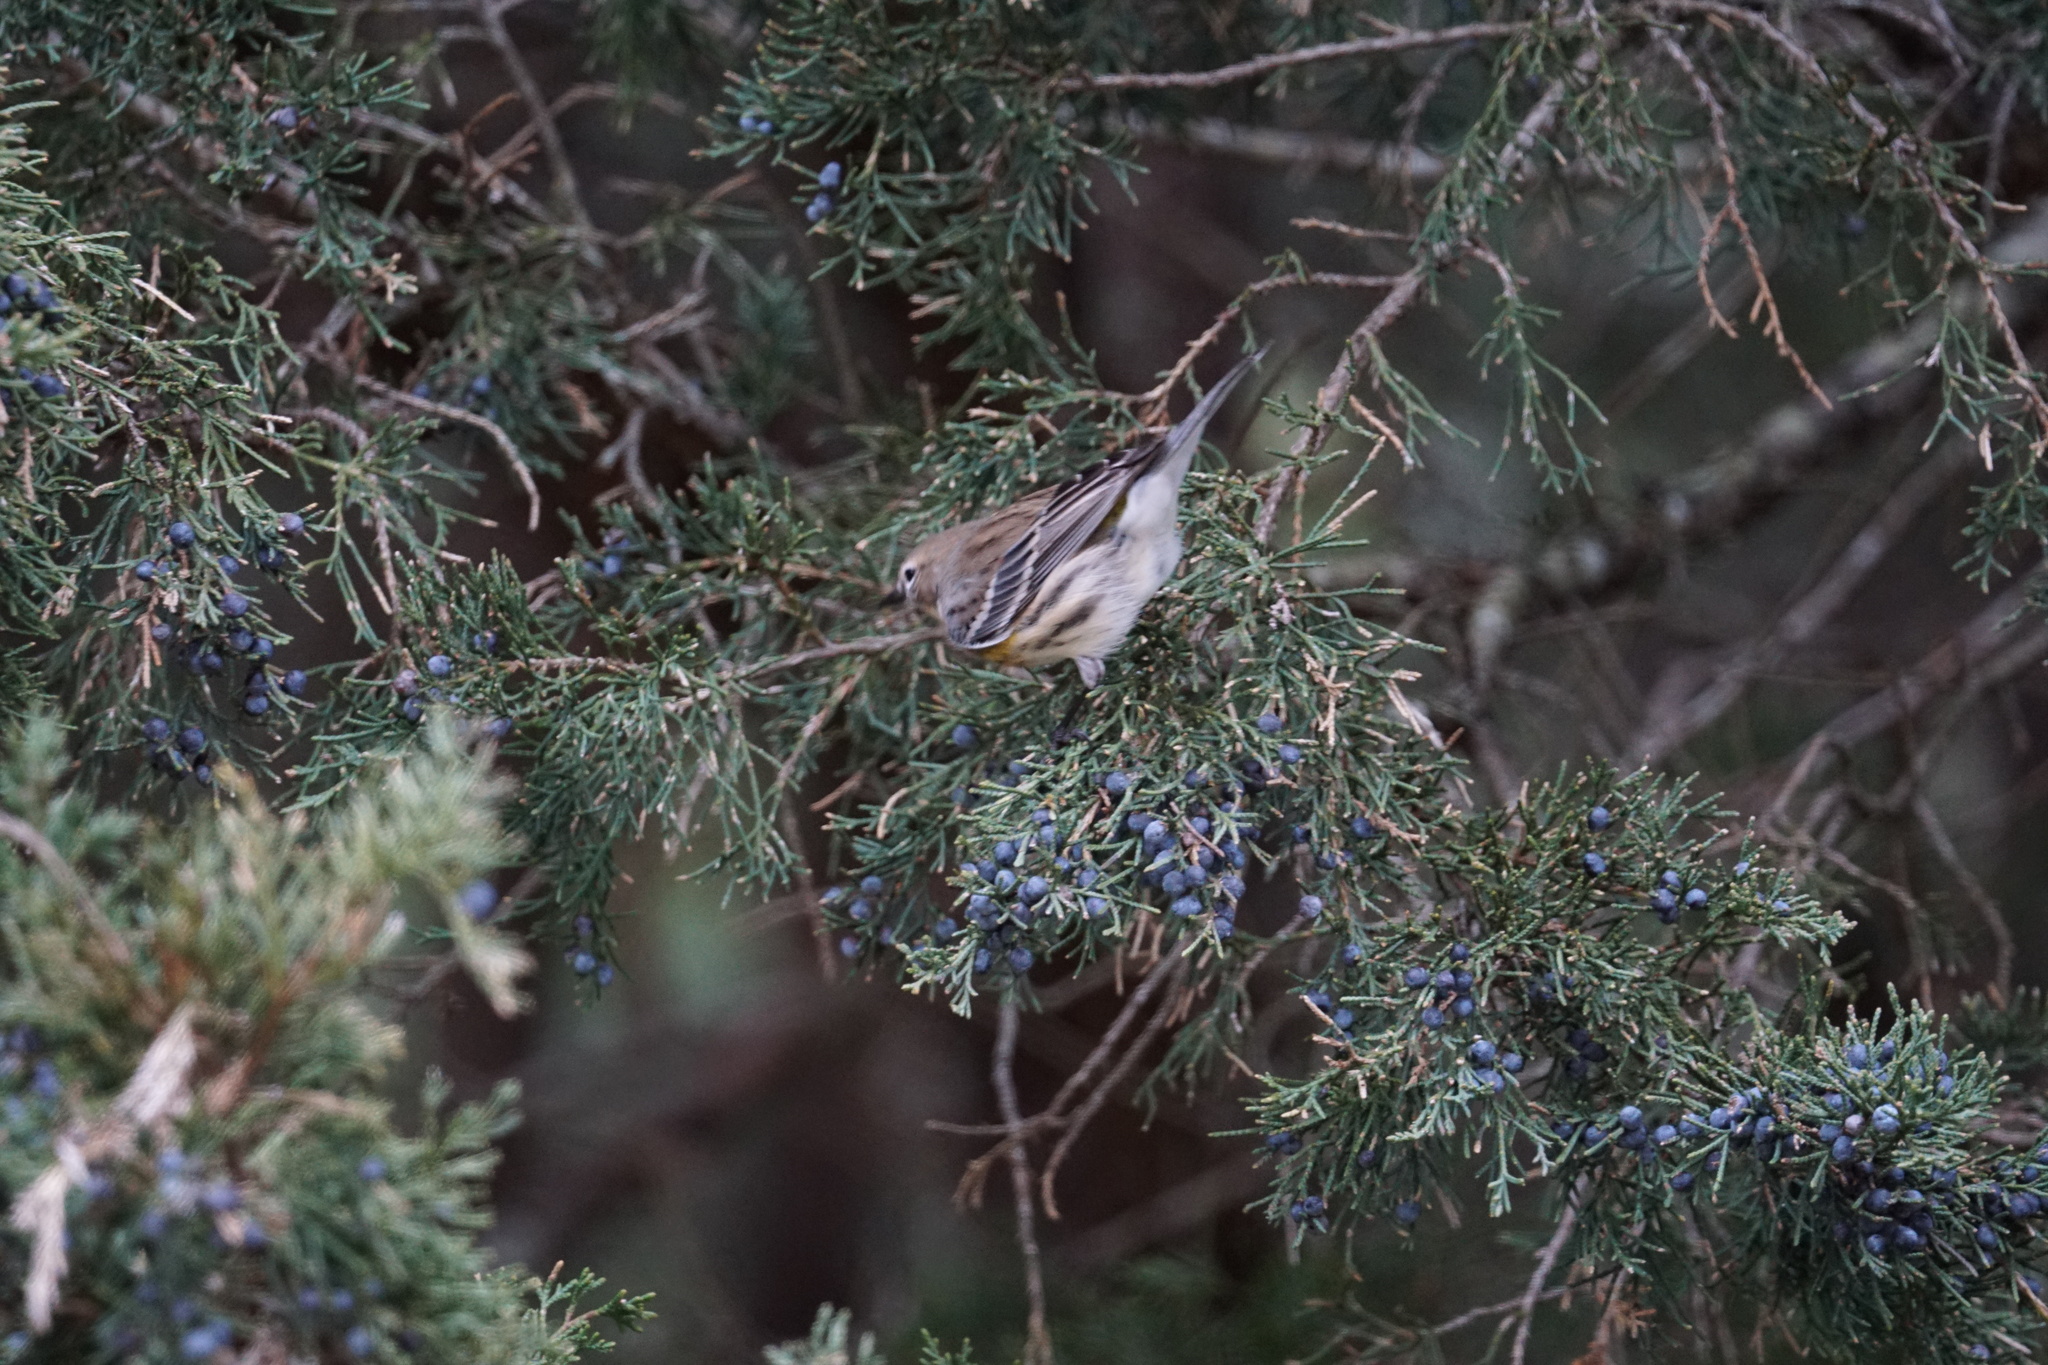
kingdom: Animalia
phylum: Chordata
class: Aves
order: Passeriformes
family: Parulidae
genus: Setophaga
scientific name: Setophaga coronata
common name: Myrtle warbler
